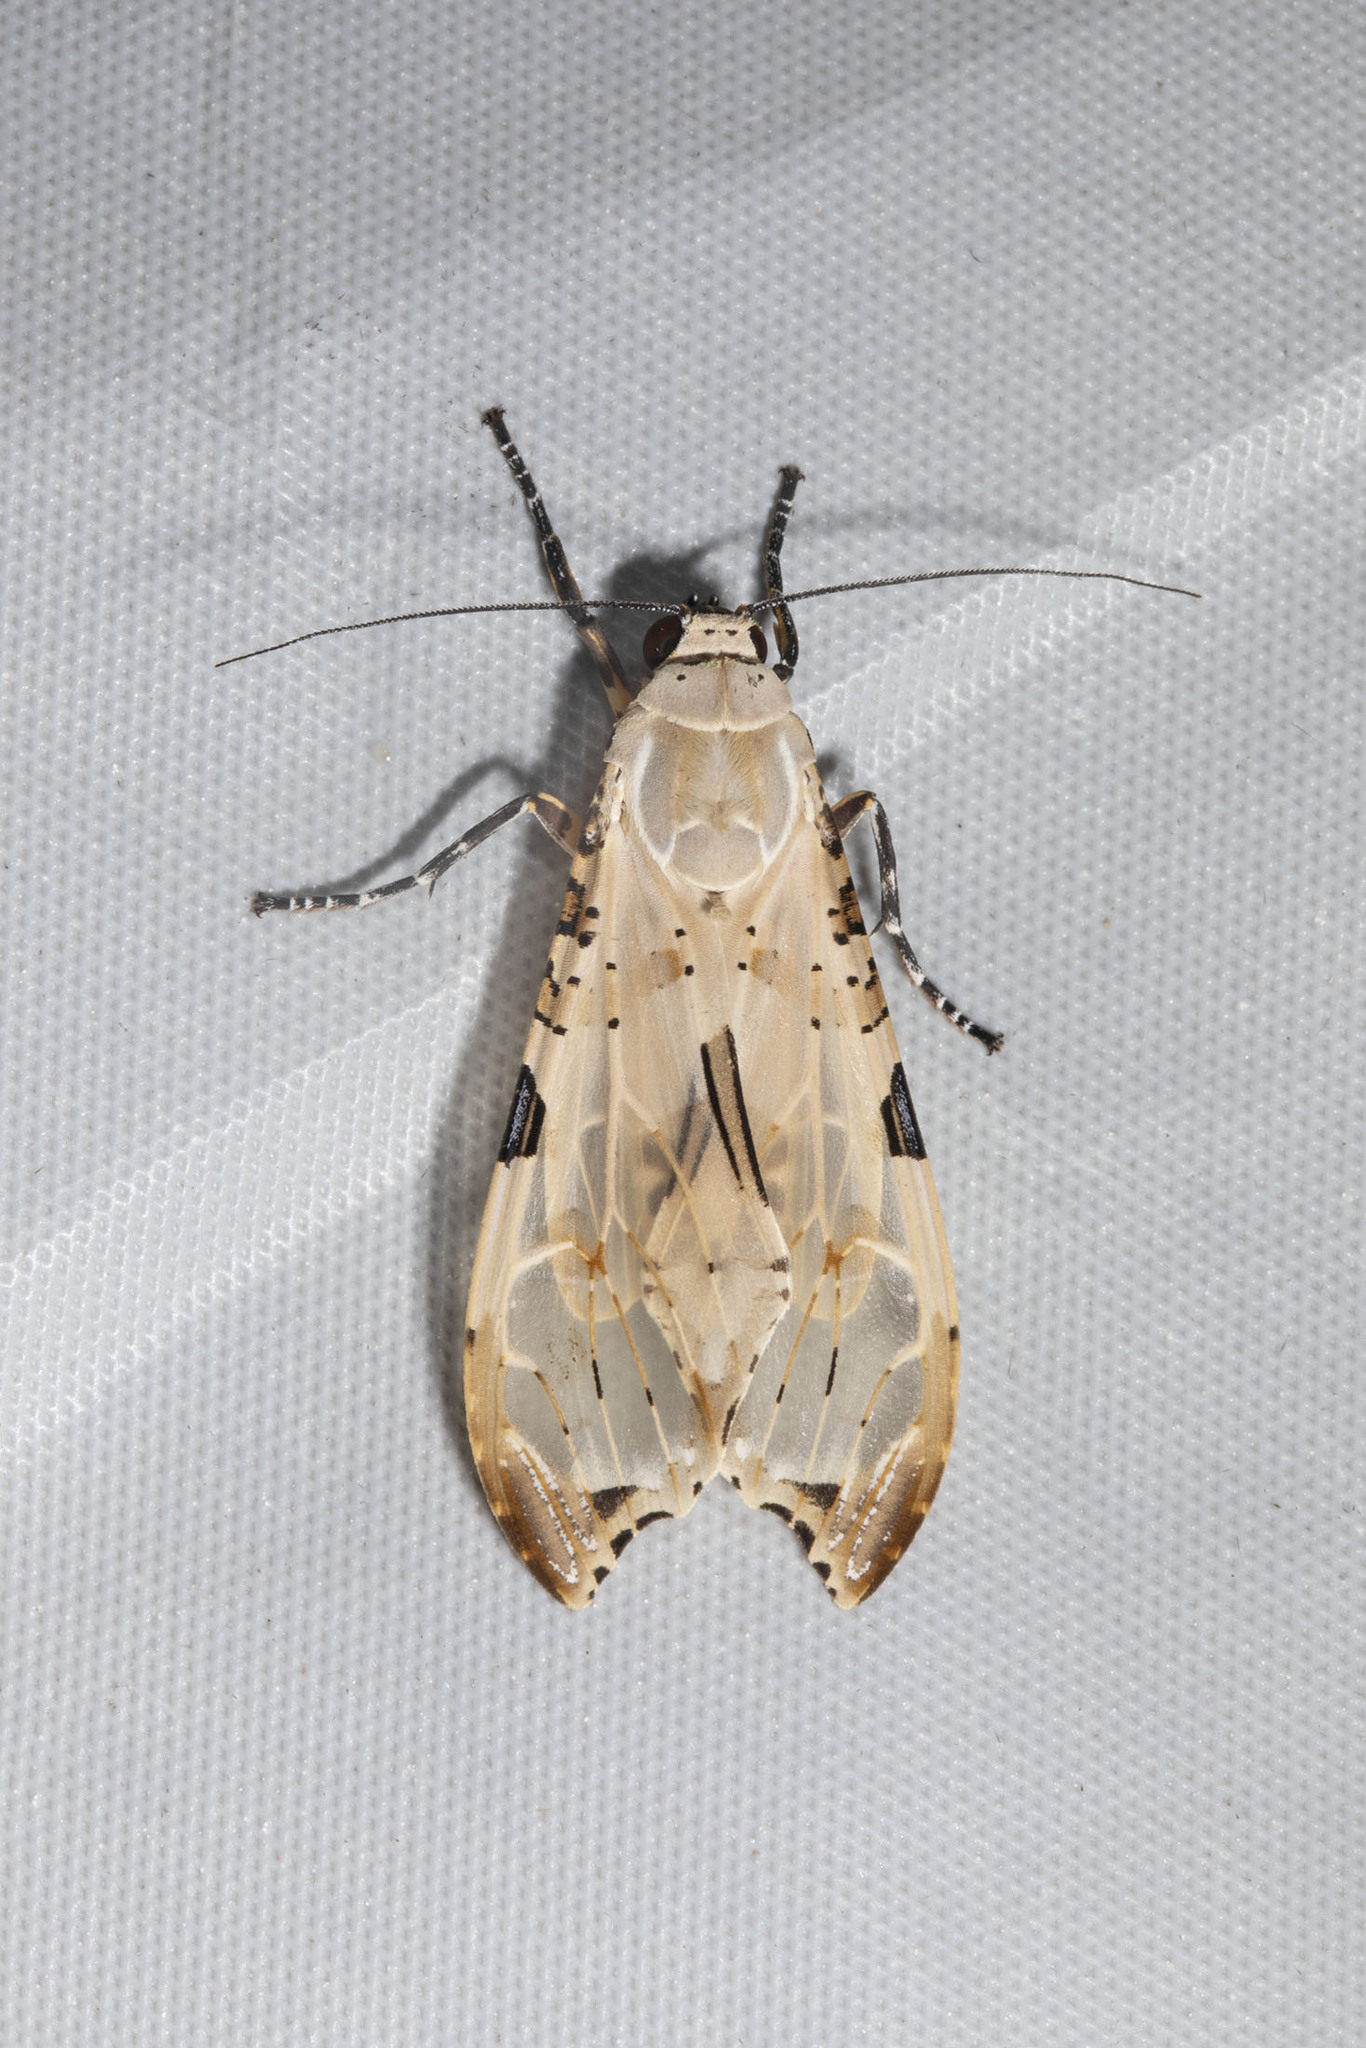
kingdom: Animalia
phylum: Arthropoda
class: Insecta
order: Lepidoptera
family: Erebidae
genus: Psychophasma
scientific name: Psychophasma erosa
